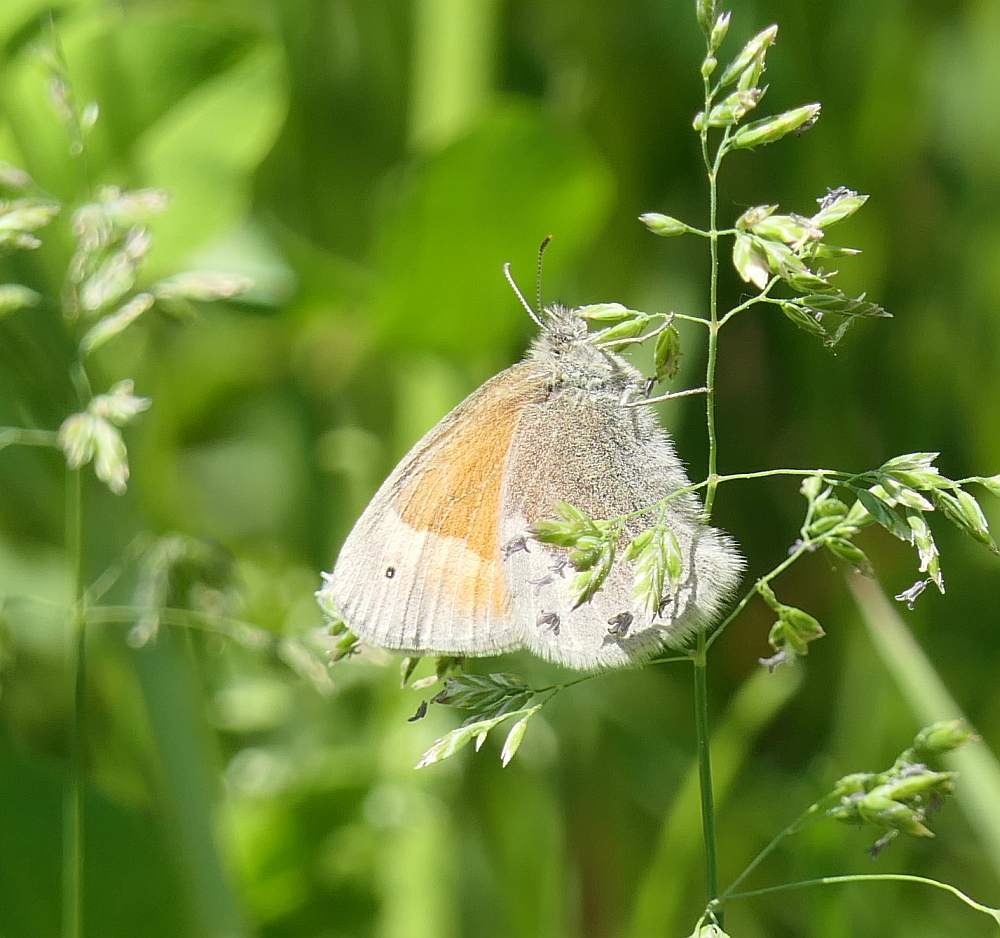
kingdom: Animalia
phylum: Arthropoda
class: Insecta
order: Lepidoptera
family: Nymphalidae
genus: Coenonympha
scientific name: Coenonympha california
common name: Common ringlet
